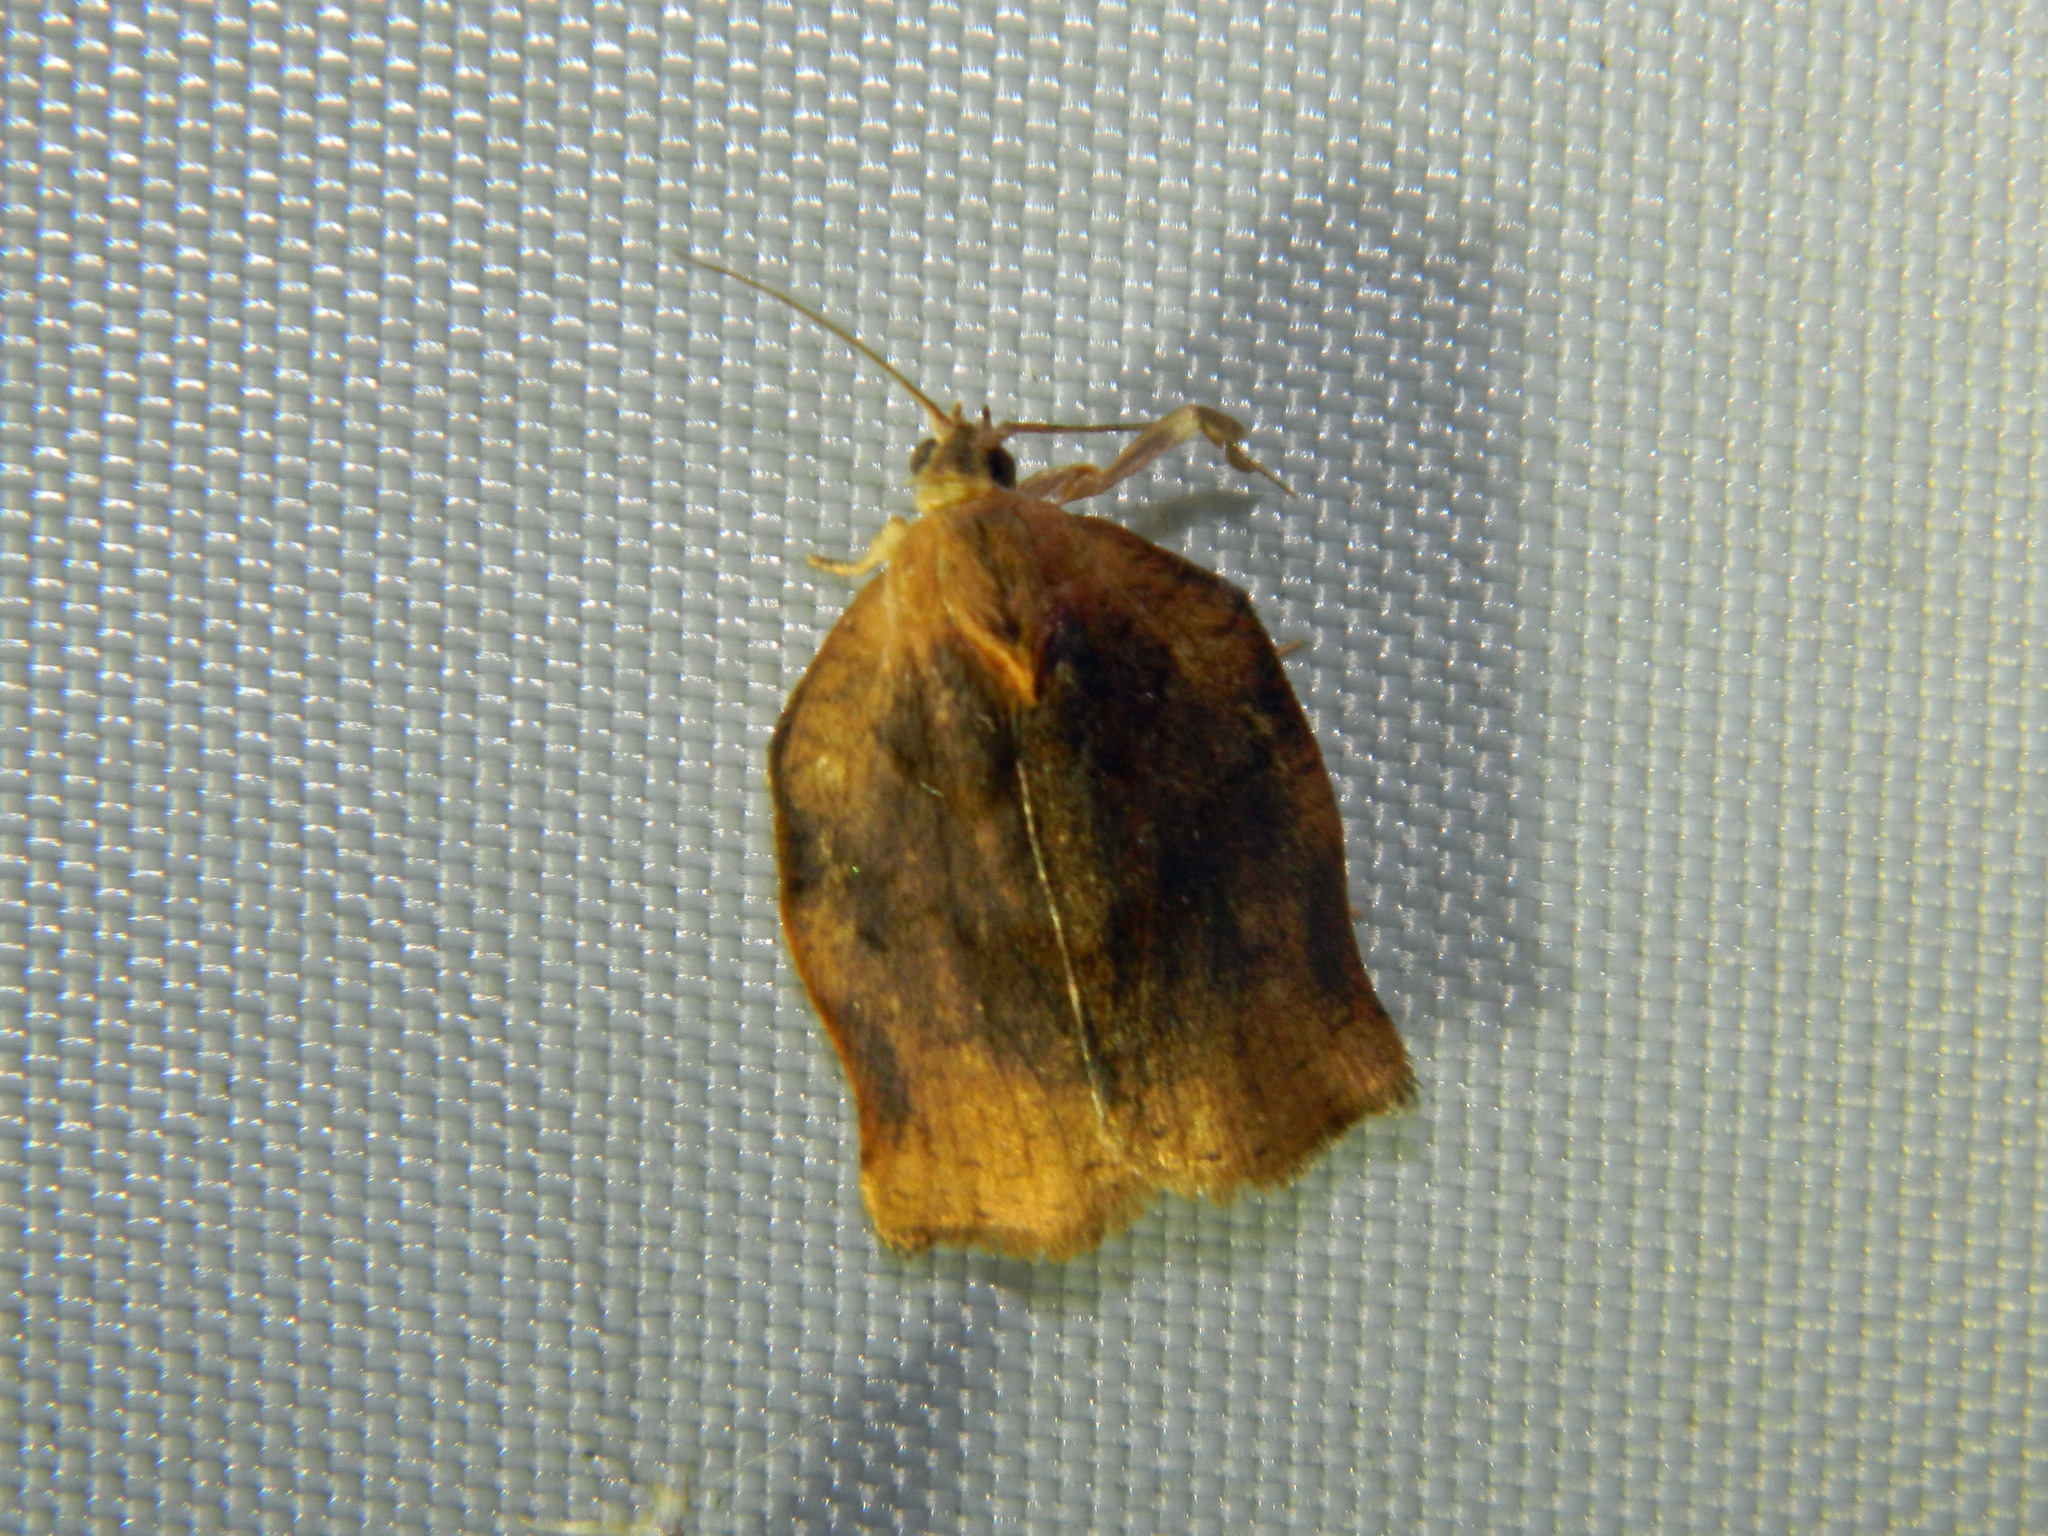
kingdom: Animalia
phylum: Arthropoda
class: Insecta
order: Lepidoptera
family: Tortricidae
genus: Archips
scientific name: Archips purpurana
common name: Omnivorous leafroller
